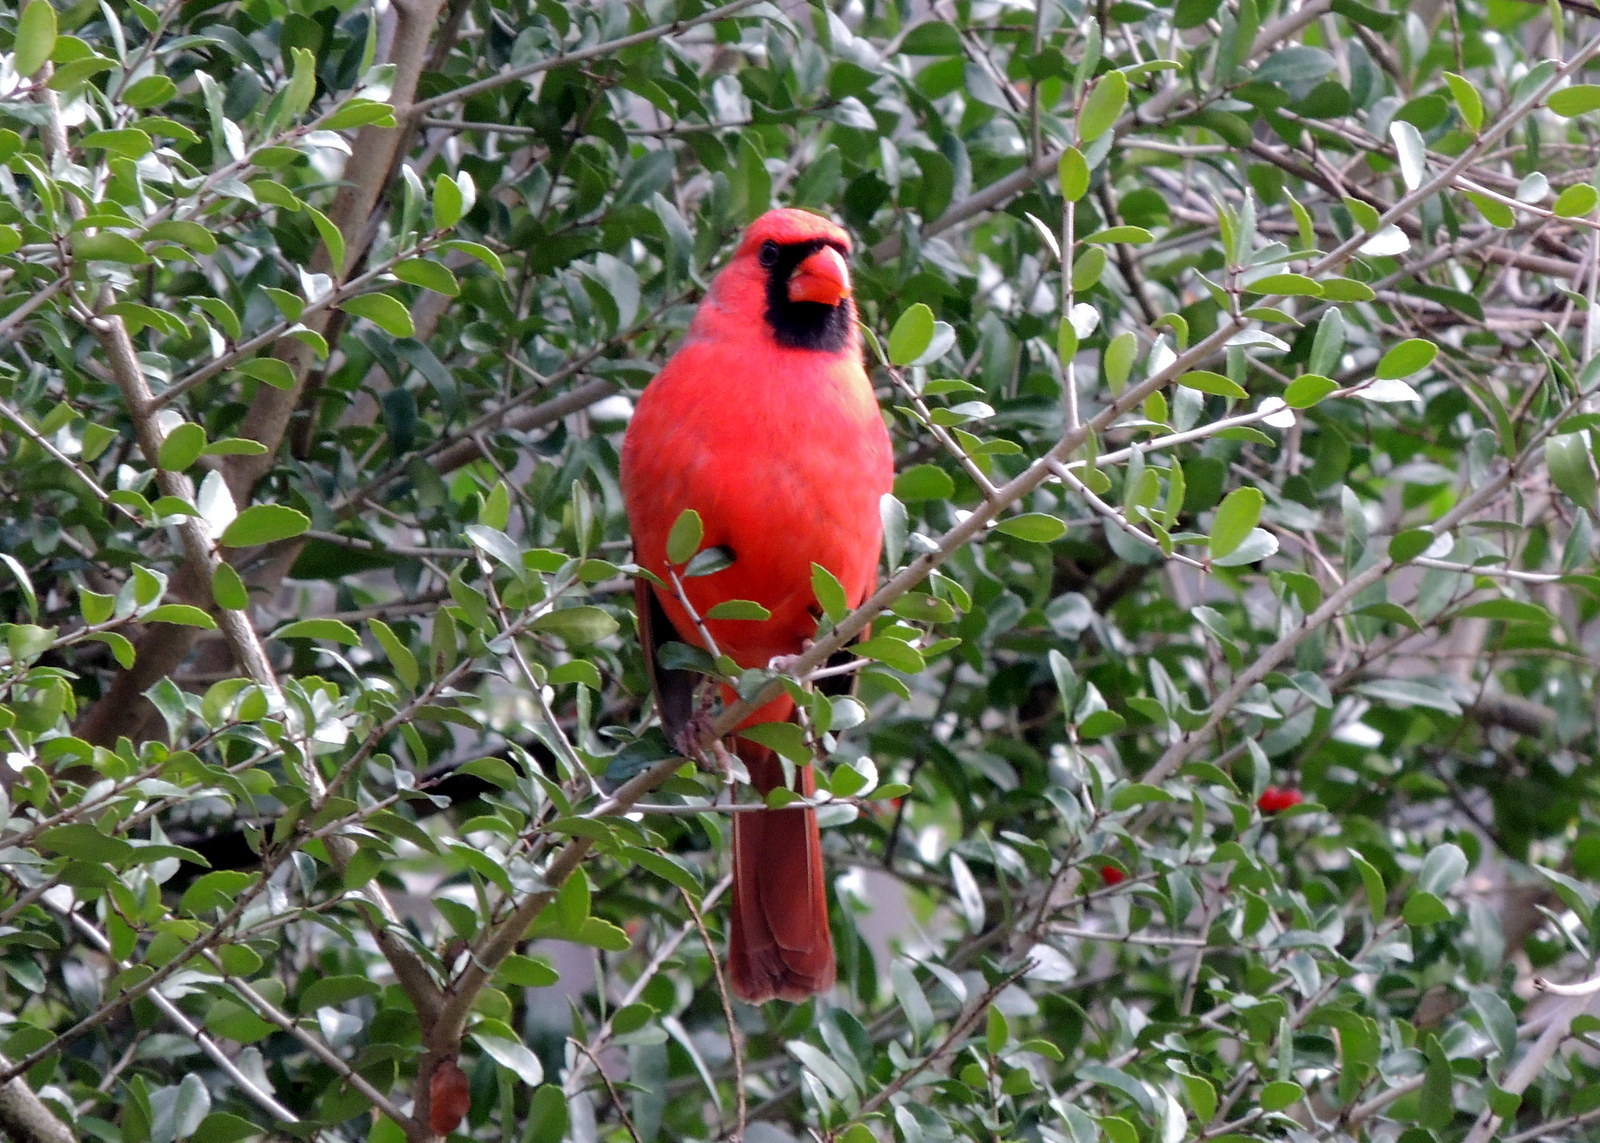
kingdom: Animalia
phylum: Chordata
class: Aves
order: Passeriformes
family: Cardinalidae
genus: Cardinalis
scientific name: Cardinalis cardinalis
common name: Northern cardinal
